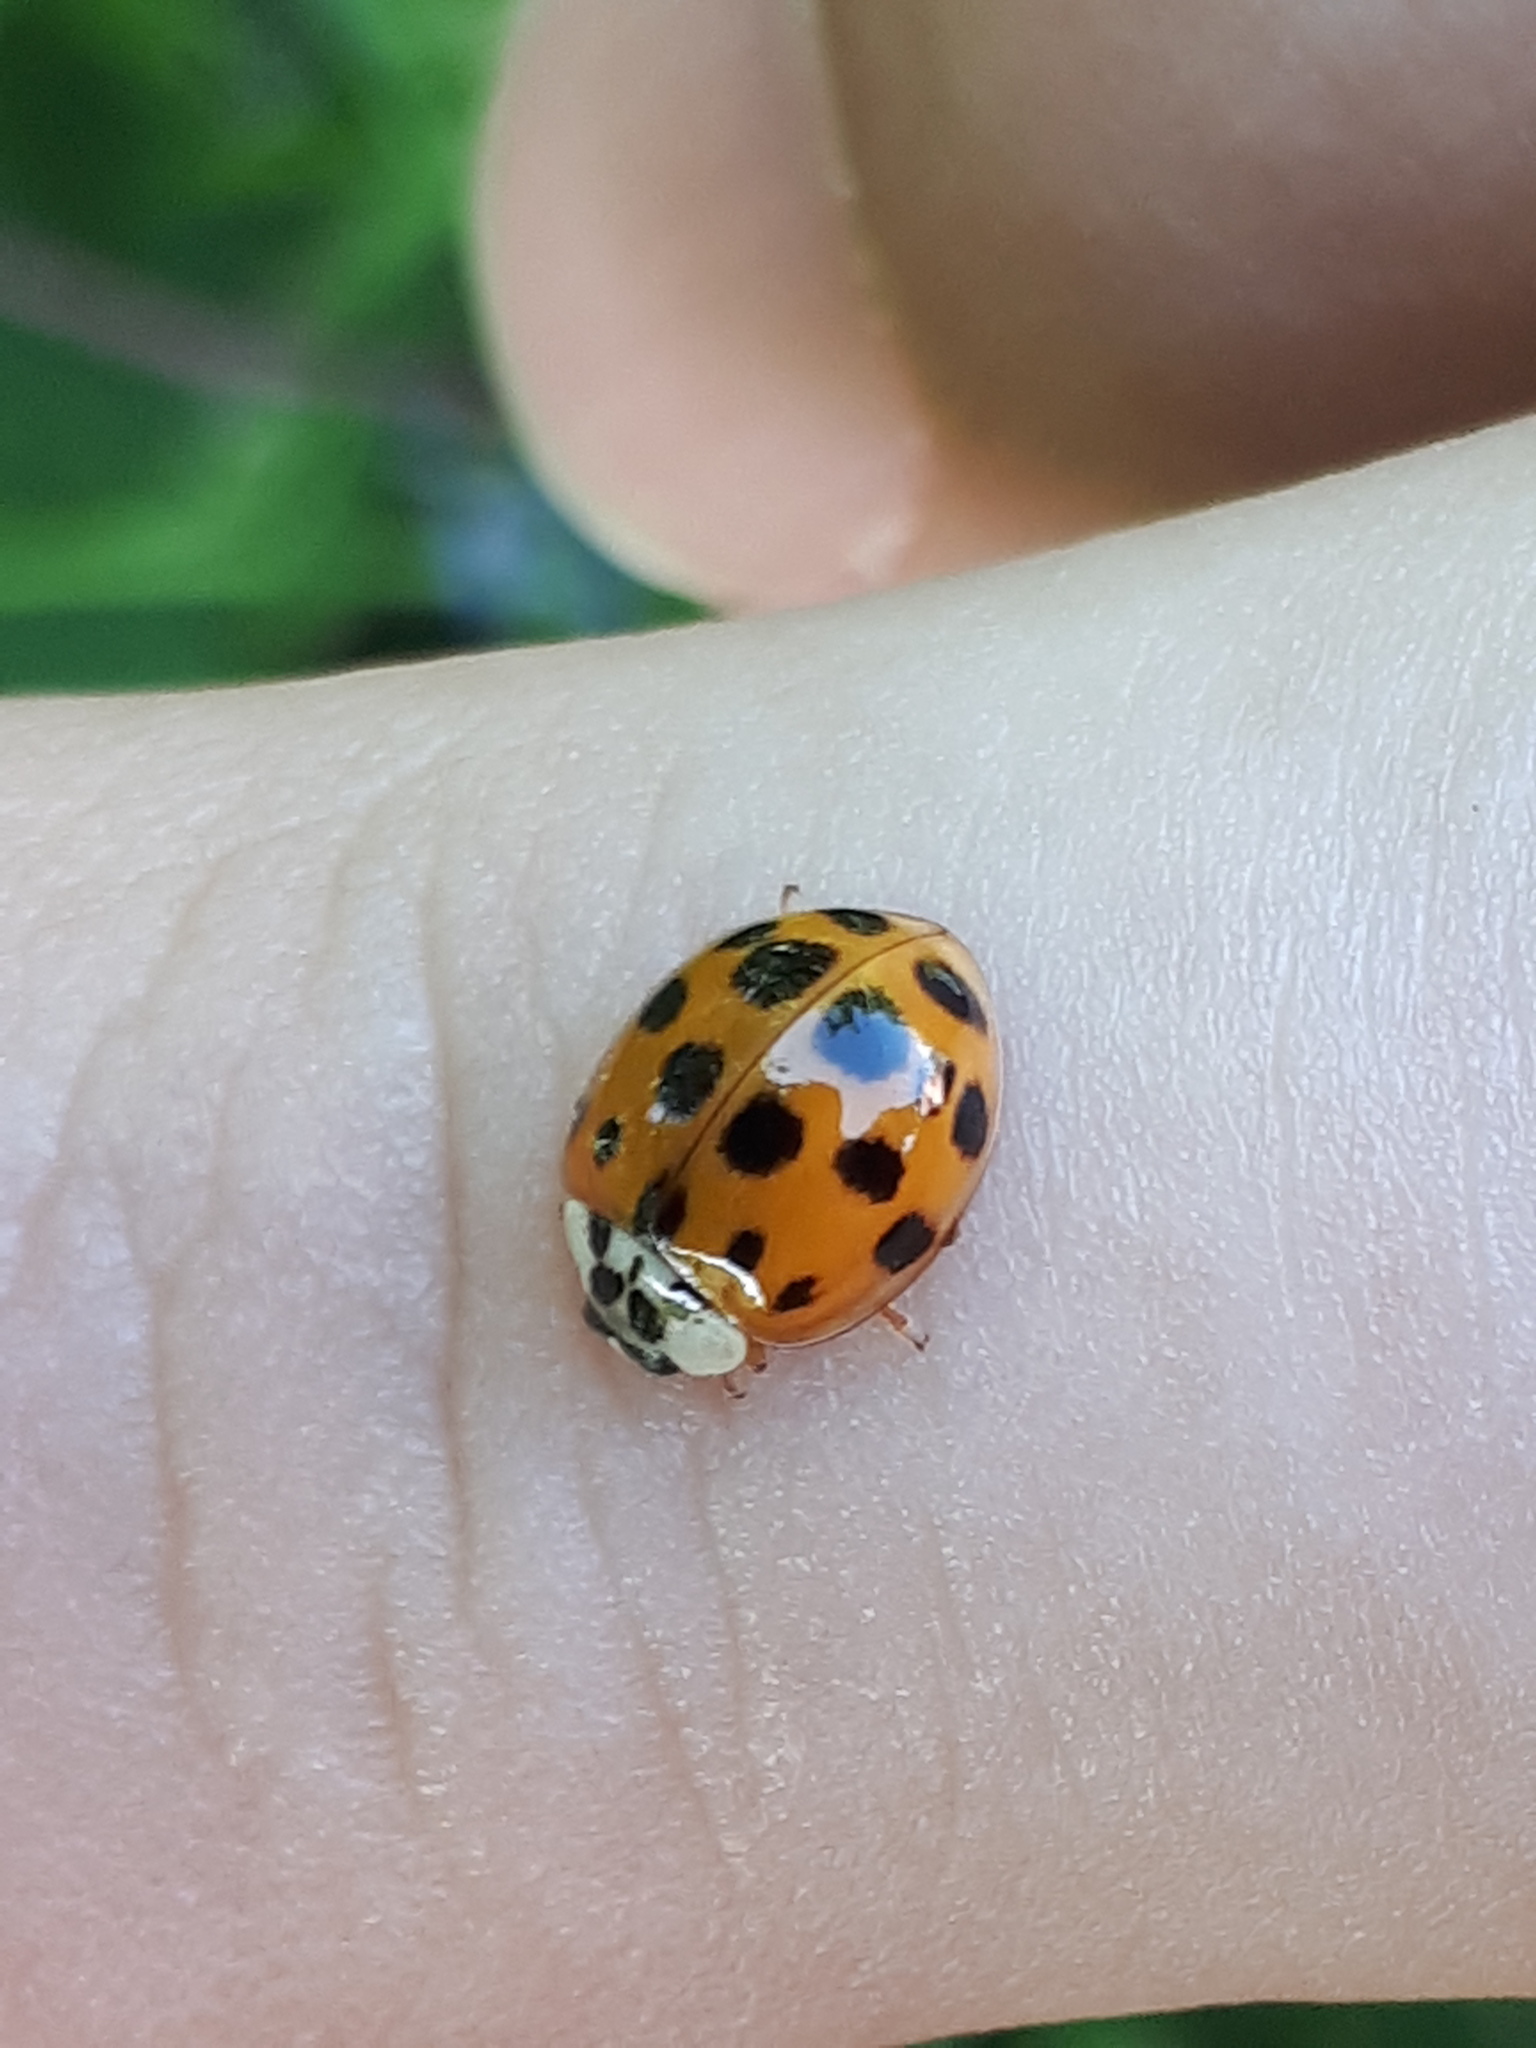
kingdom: Animalia
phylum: Arthropoda
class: Insecta
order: Coleoptera
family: Coccinellidae
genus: Harmonia
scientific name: Harmonia axyridis
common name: Harlequin ladybird
